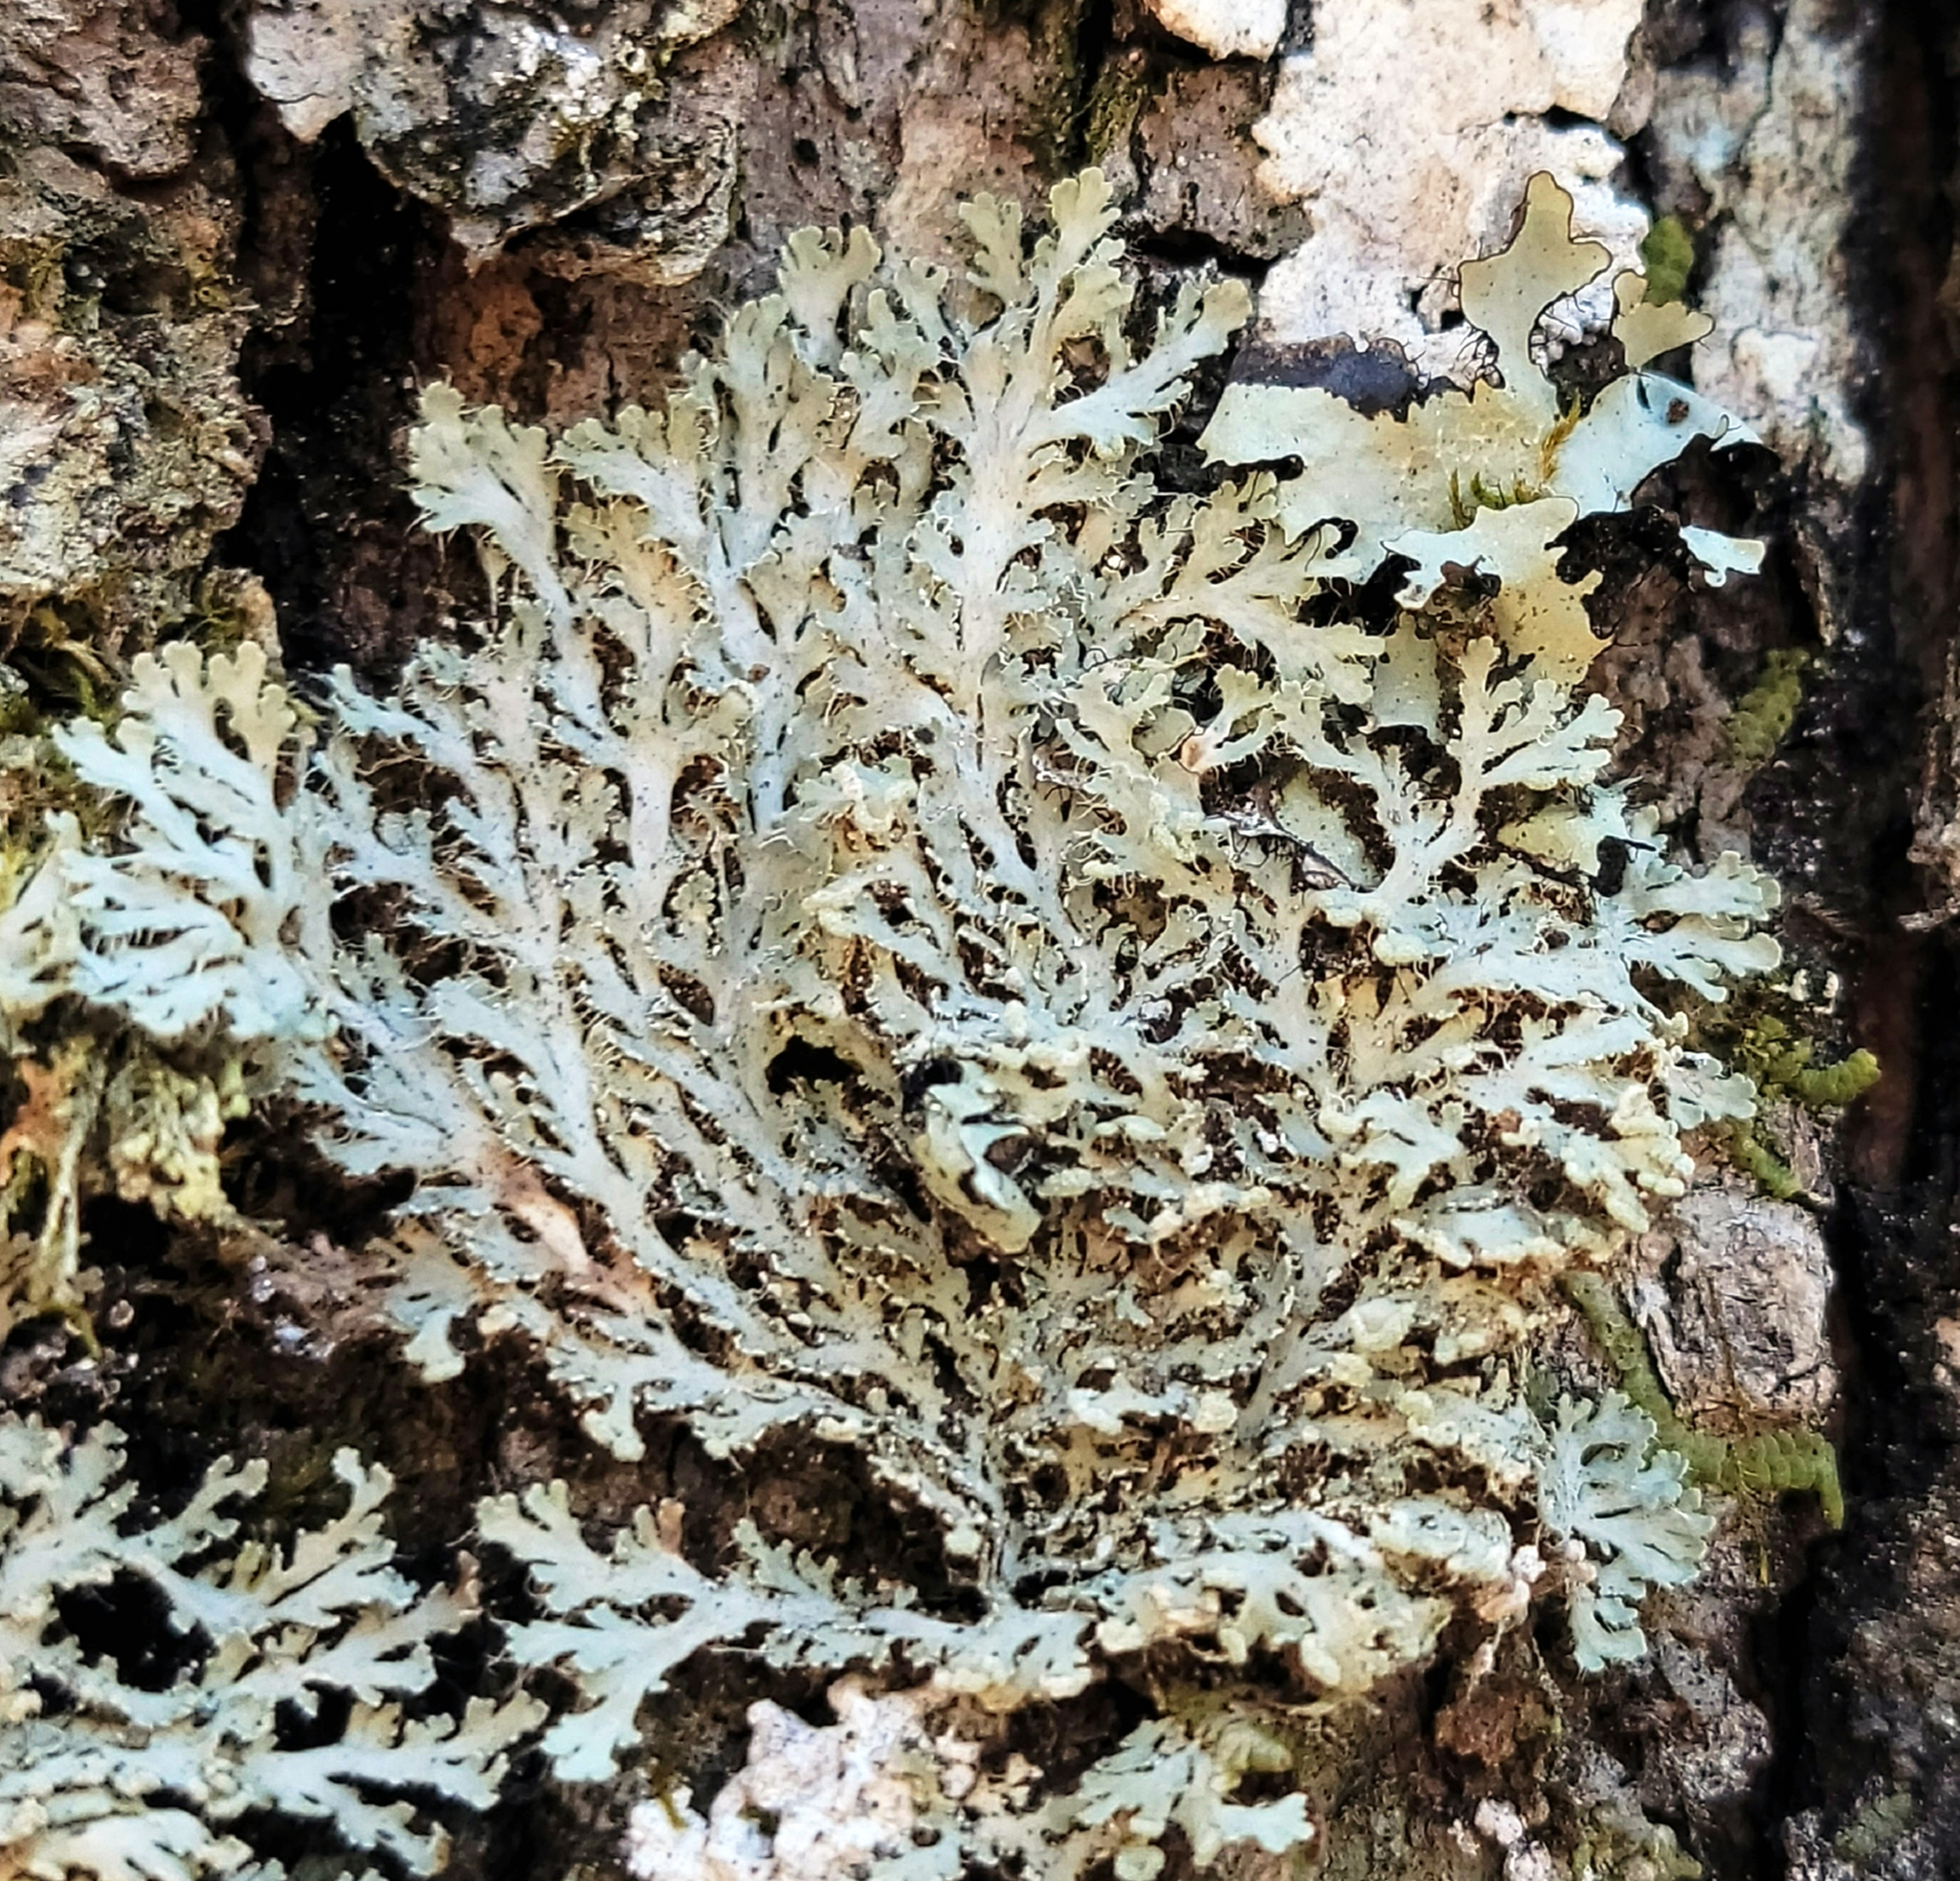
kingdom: Fungi
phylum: Ascomycota
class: Lecanoromycetes
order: Caliciales
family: Physciaceae
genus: Heterodermia
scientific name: Heterodermia speciosa
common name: Powdered fringe lichen
